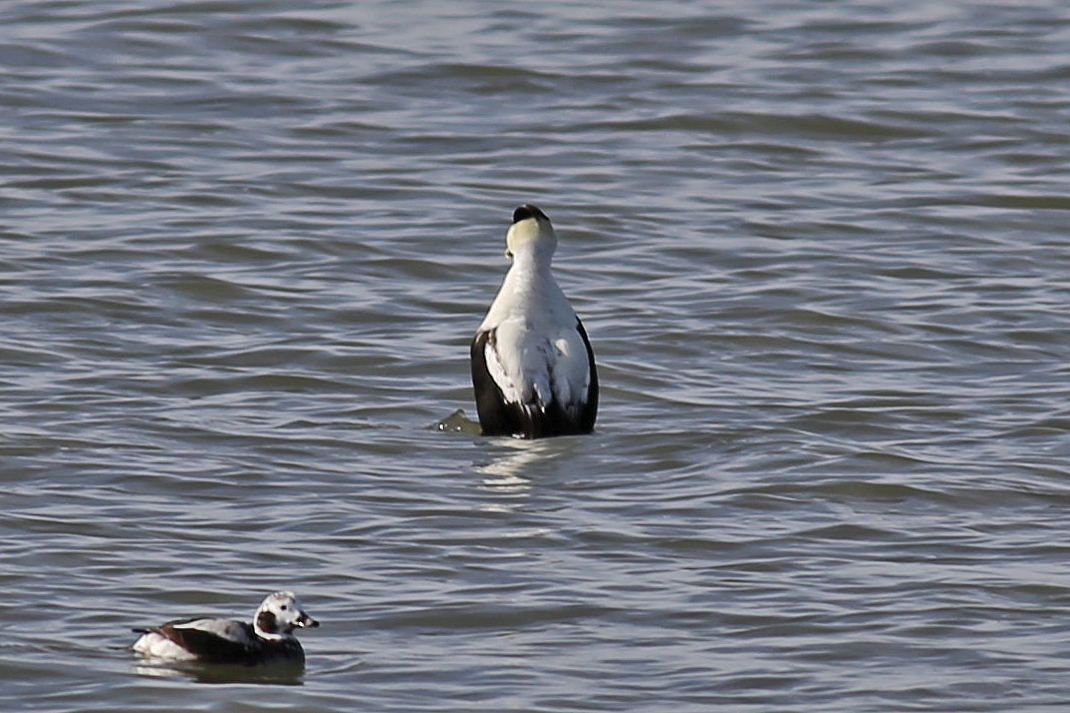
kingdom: Animalia
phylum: Chordata
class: Aves
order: Anseriformes
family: Anatidae
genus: Somateria
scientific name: Somateria mollissima
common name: Common eider
